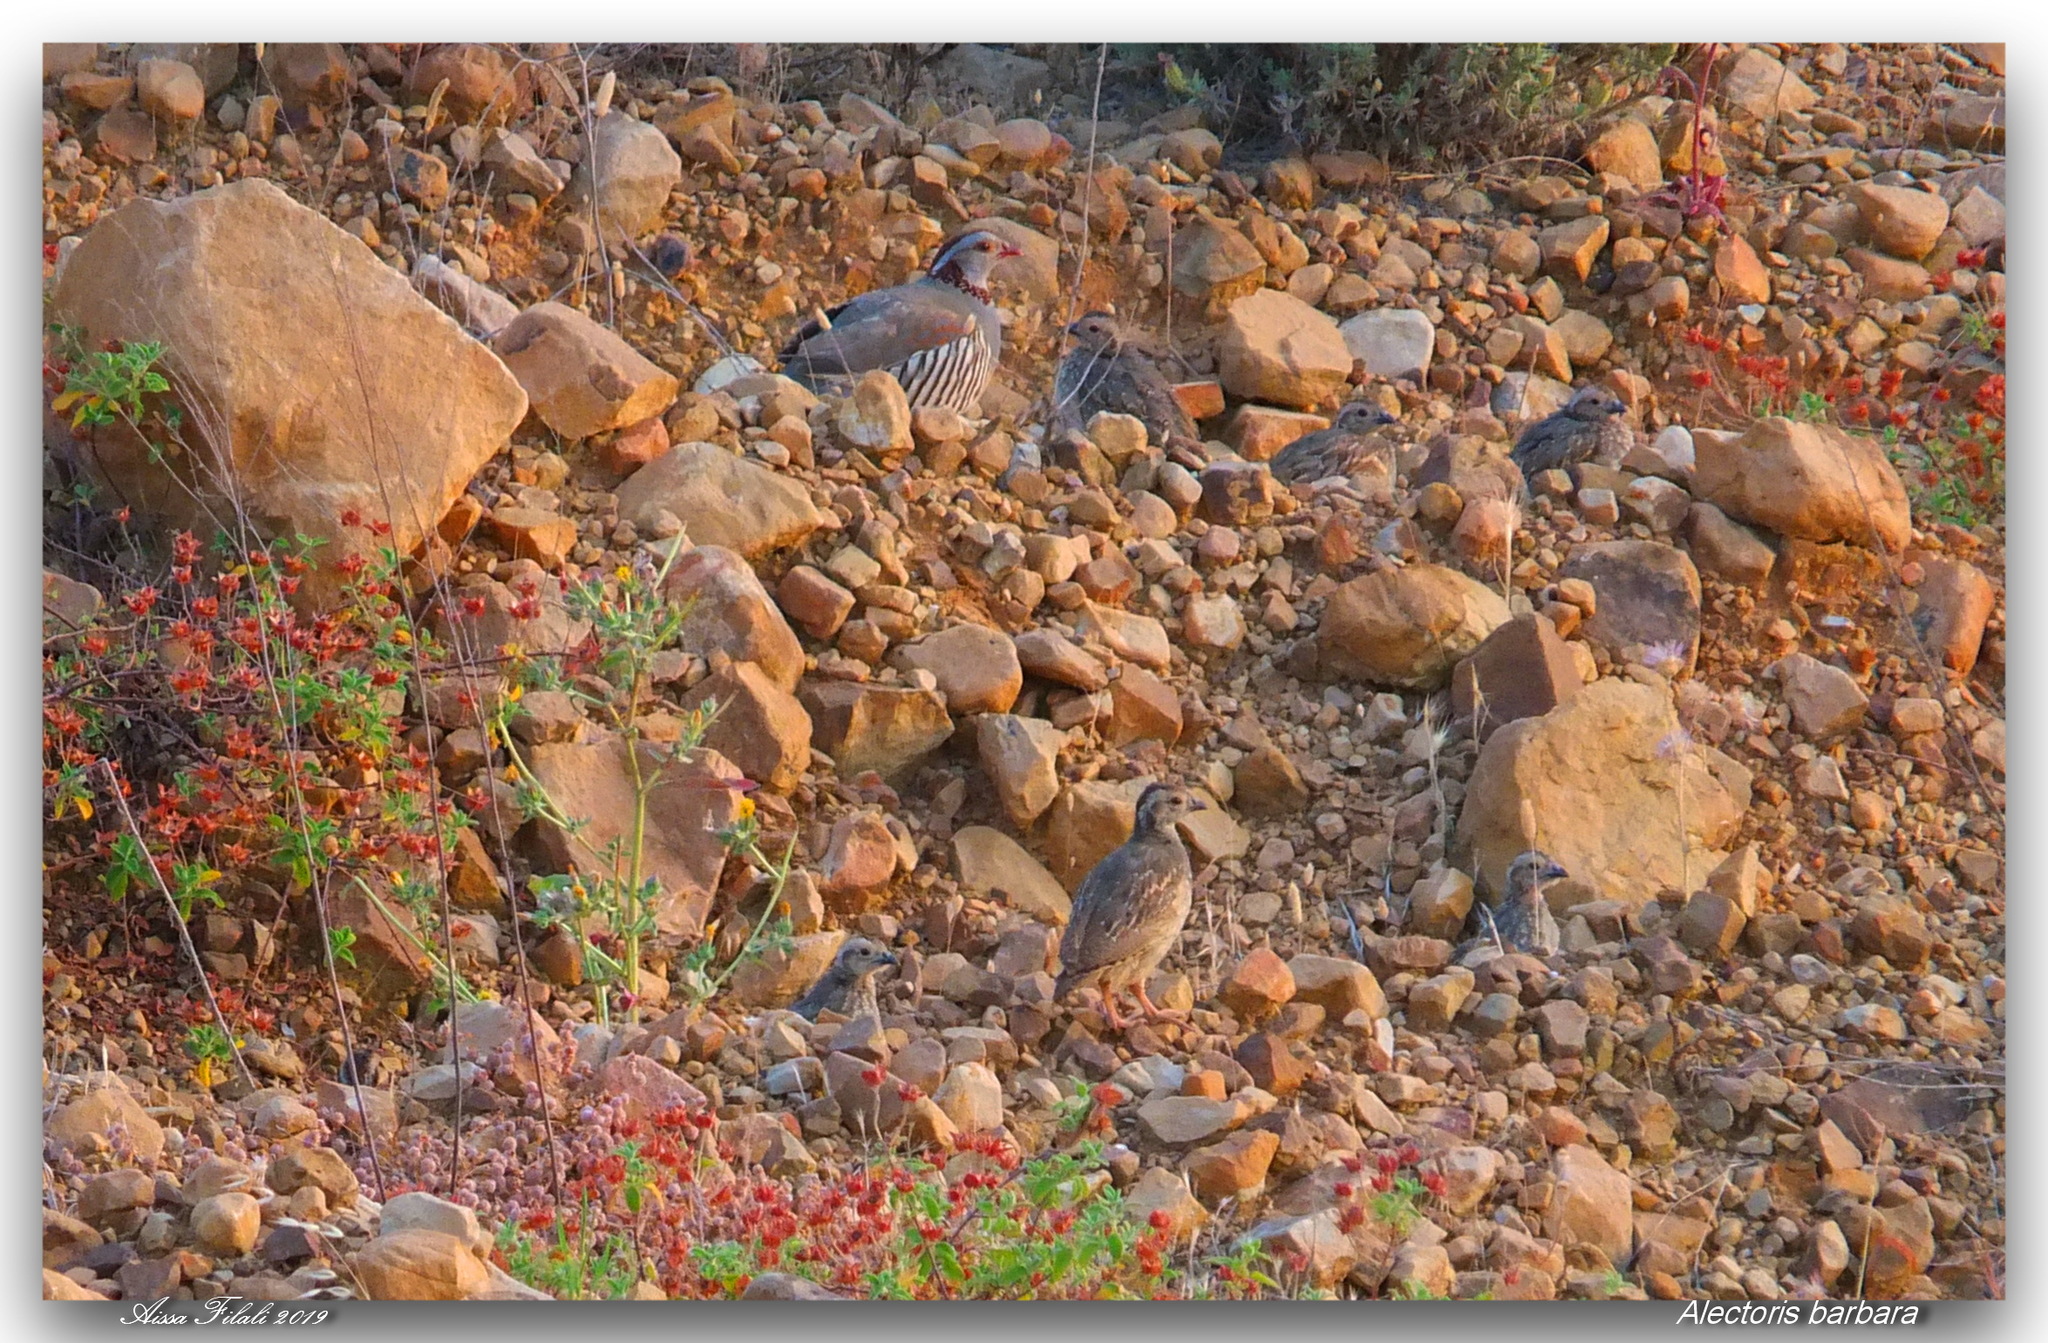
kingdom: Animalia
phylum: Chordata
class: Aves
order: Galliformes
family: Phasianidae
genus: Alectoris
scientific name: Alectoris barbara
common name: Barbary partridge
